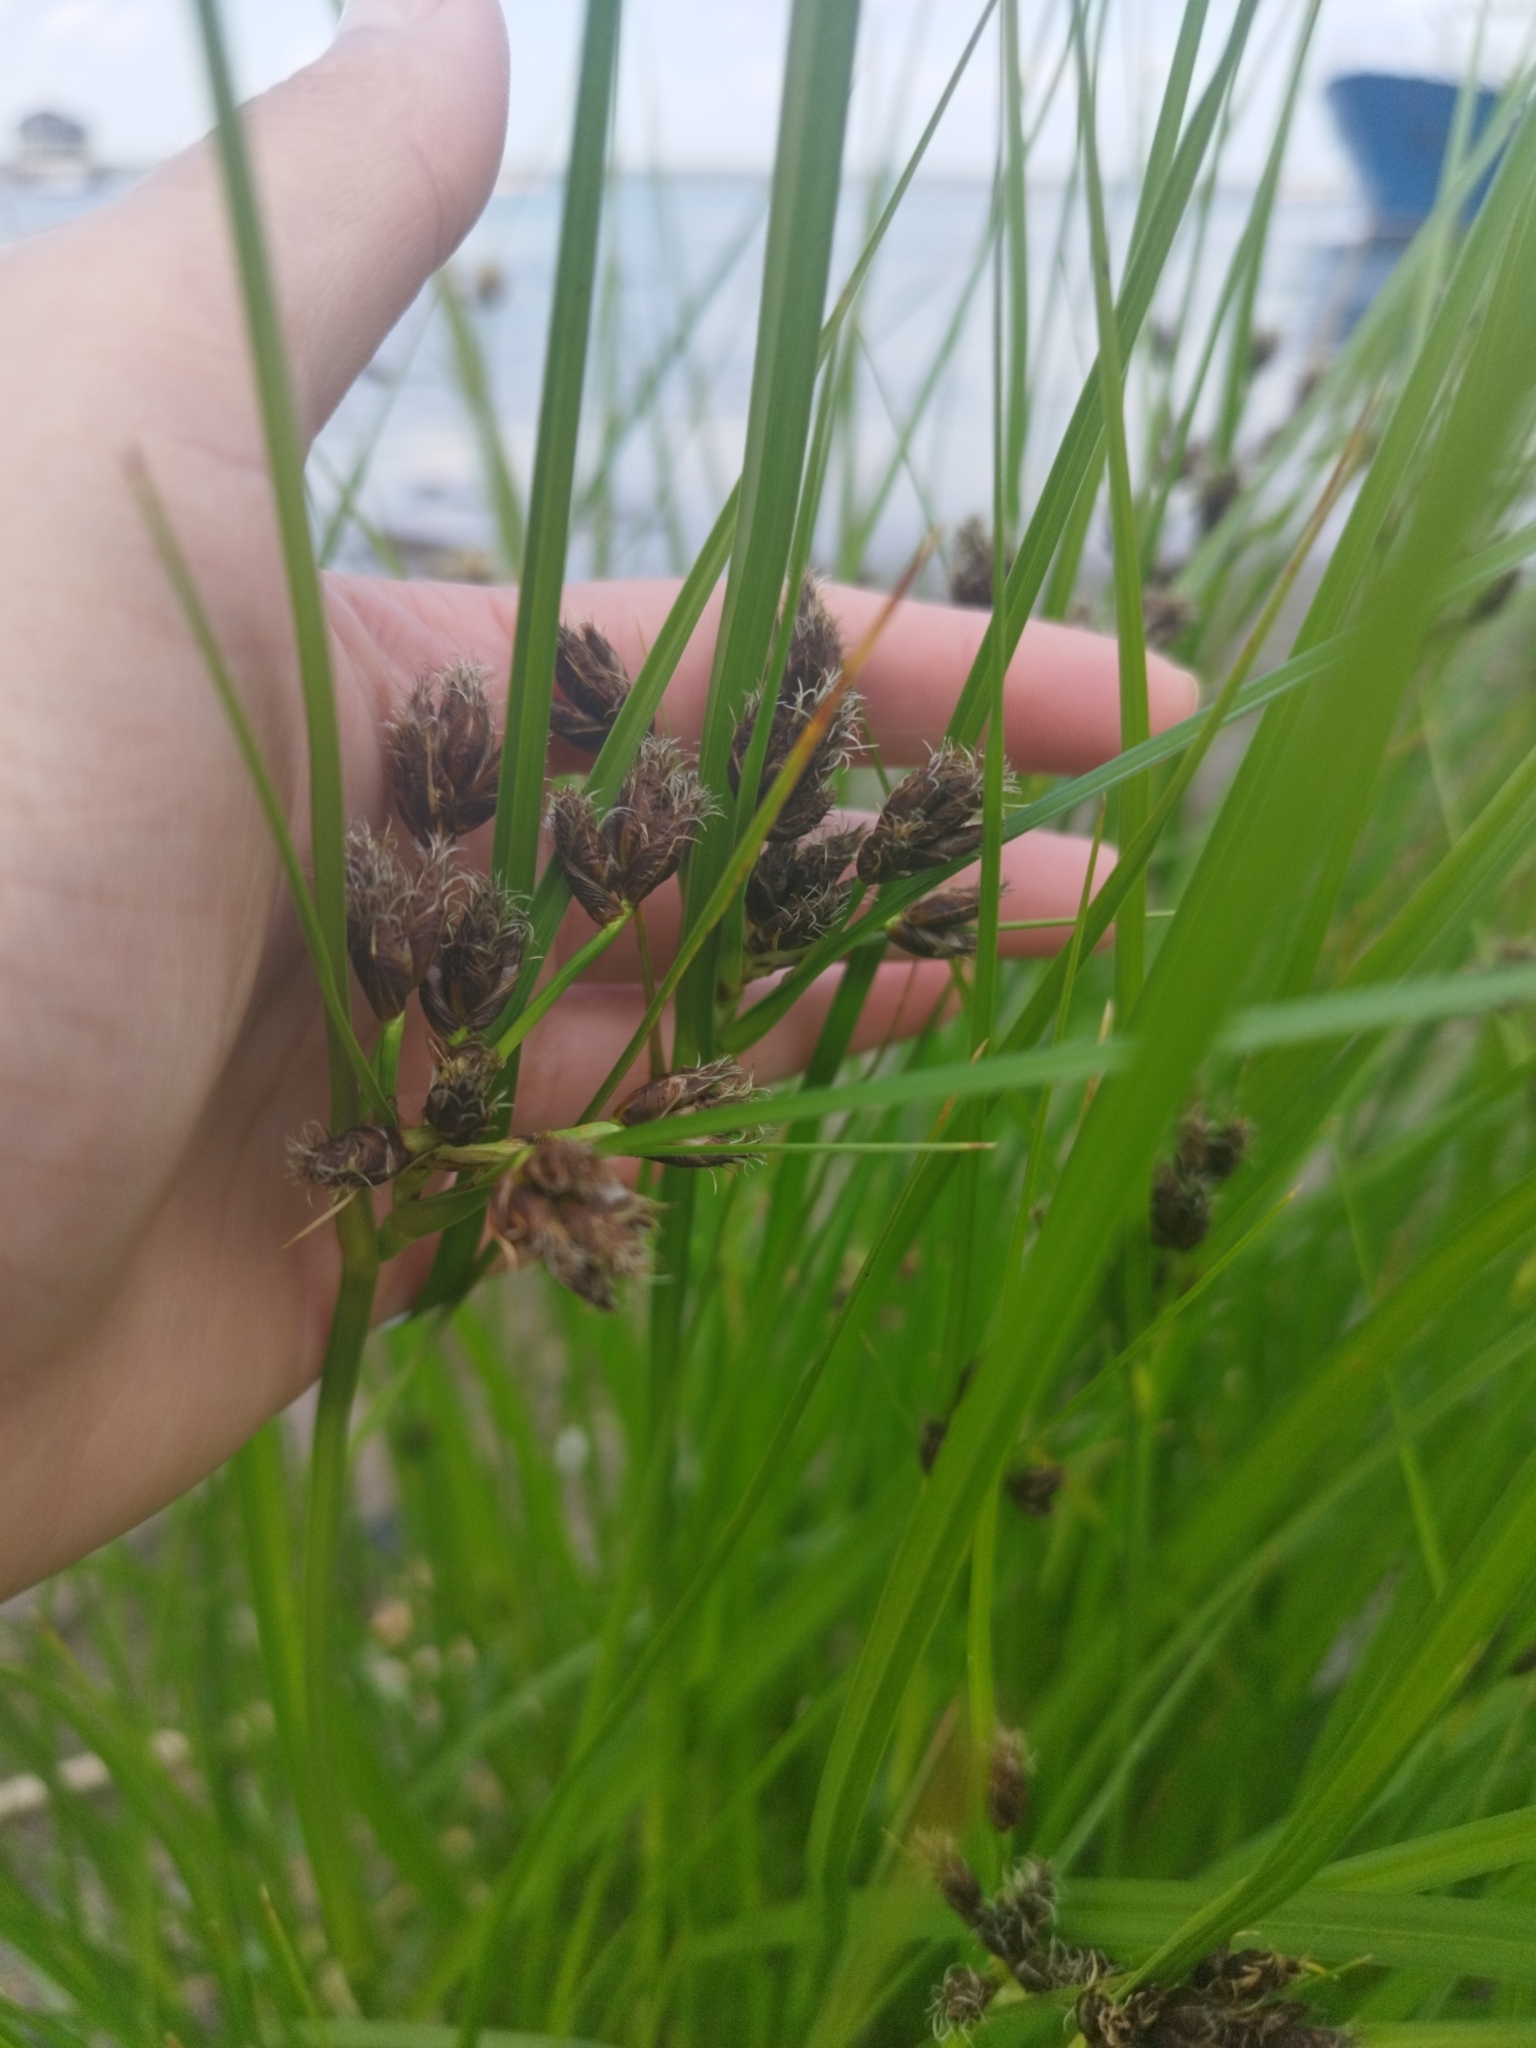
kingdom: Plantae
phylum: Tracheophyta
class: Liliopsida
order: Poales
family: Cyperaceae
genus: Bolboschoenus
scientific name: Bolboschoenus maritimus
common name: Sea club-rush
